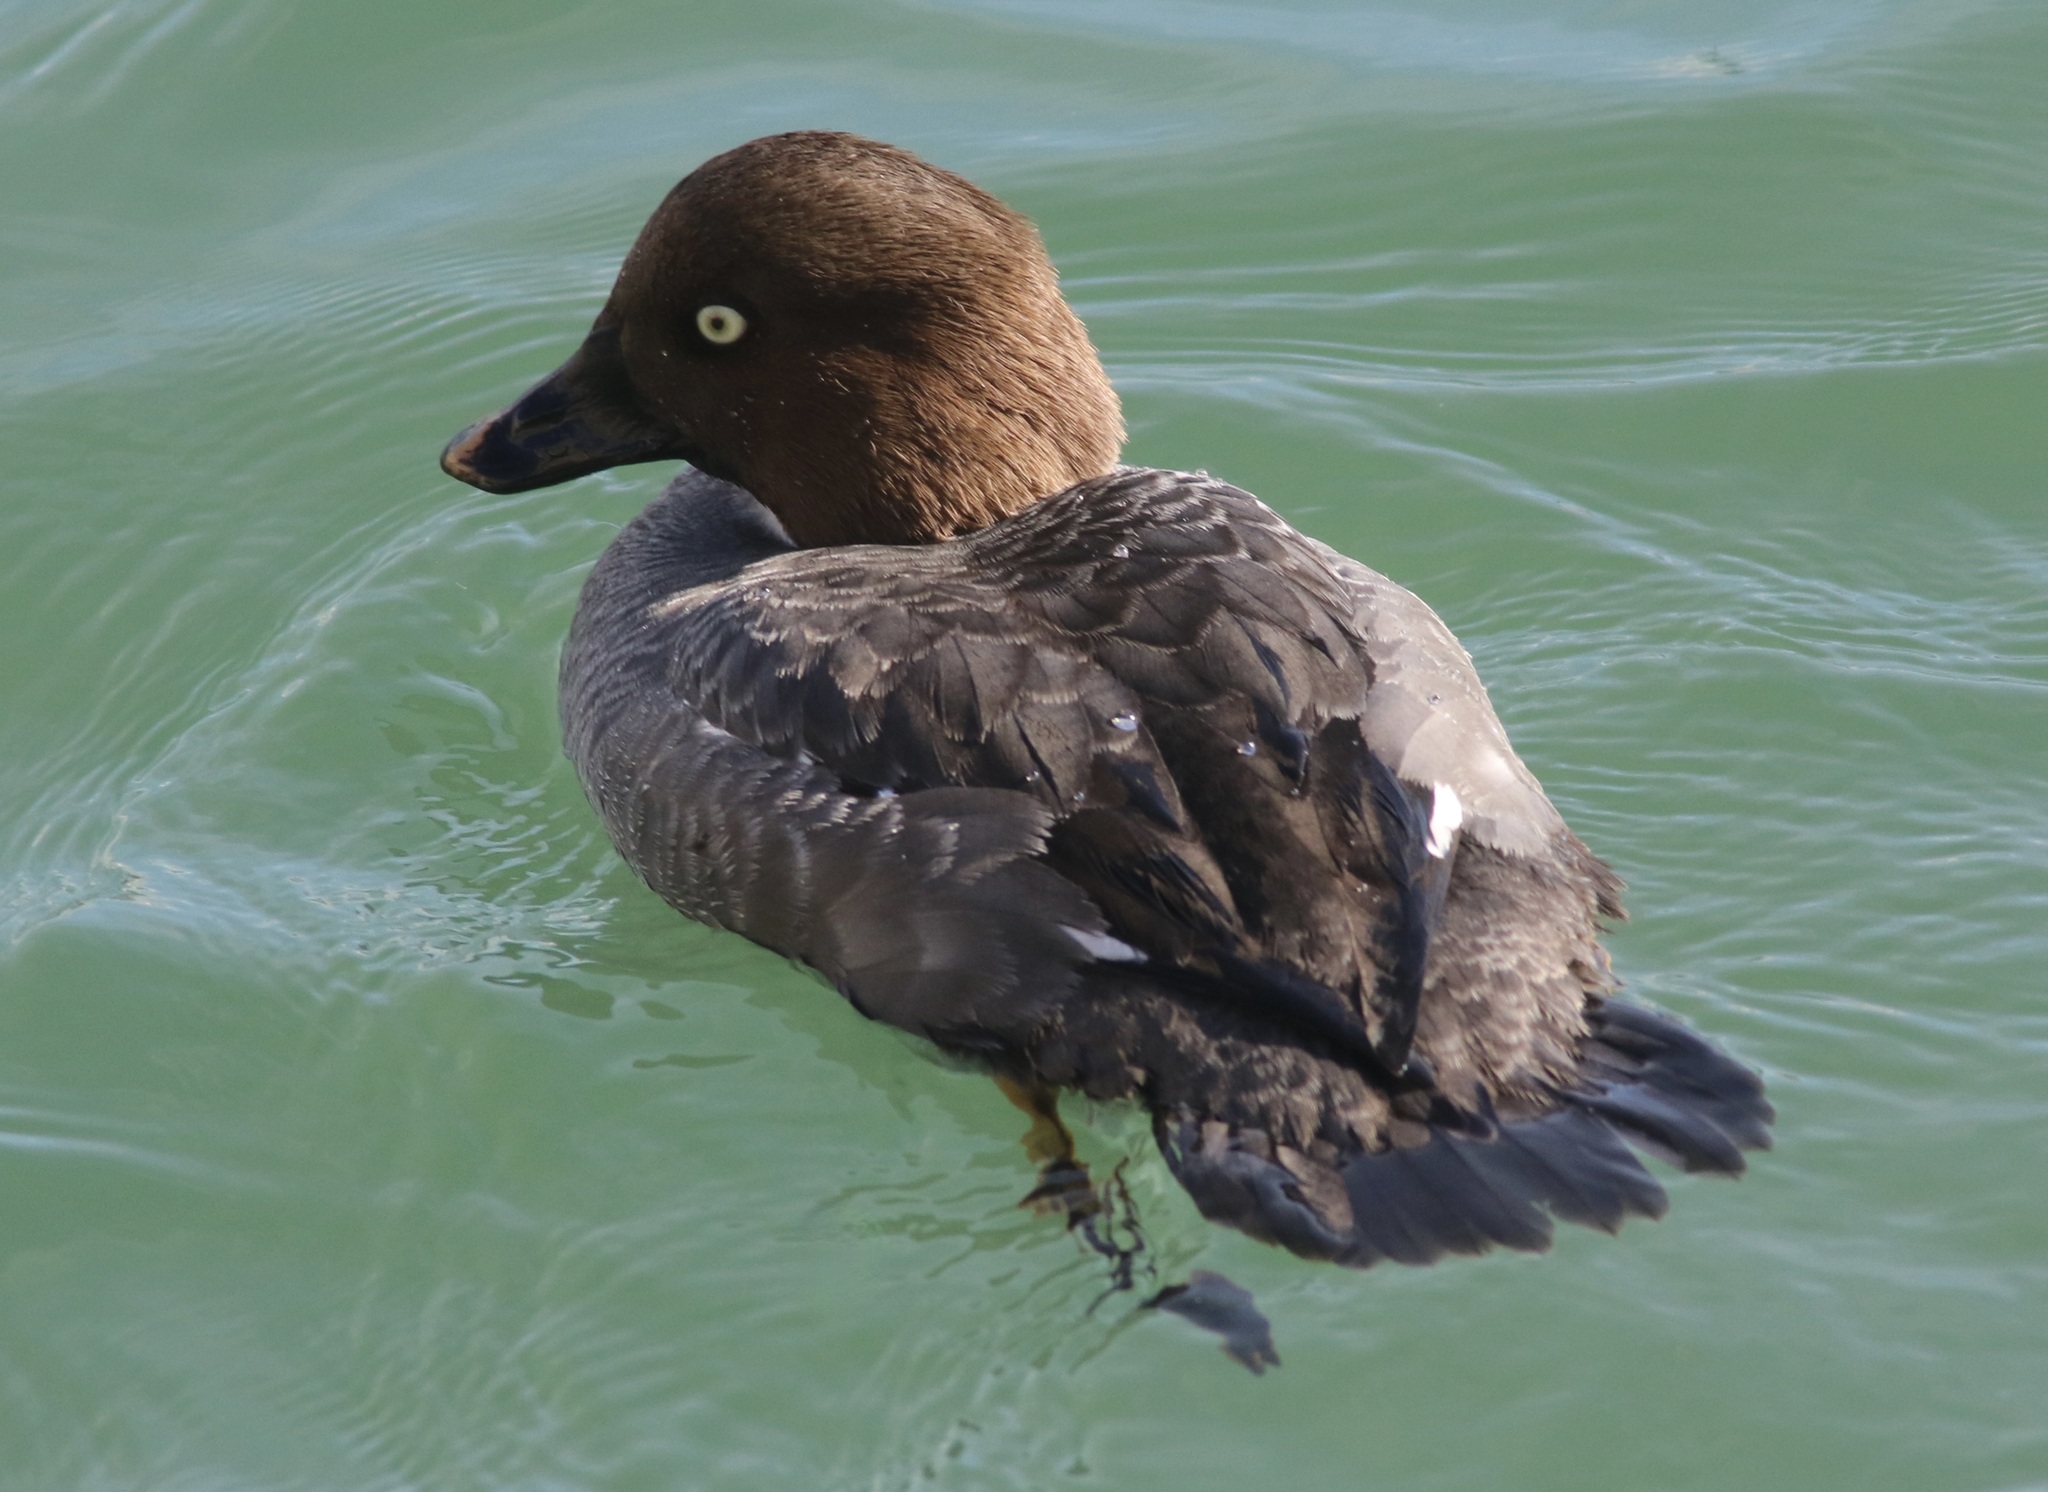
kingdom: Animalia
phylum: Chordata
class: Aves
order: Anseriformes
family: Anatidae
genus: Bucephala
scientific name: Bucephala clangula
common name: Common goldeneye
